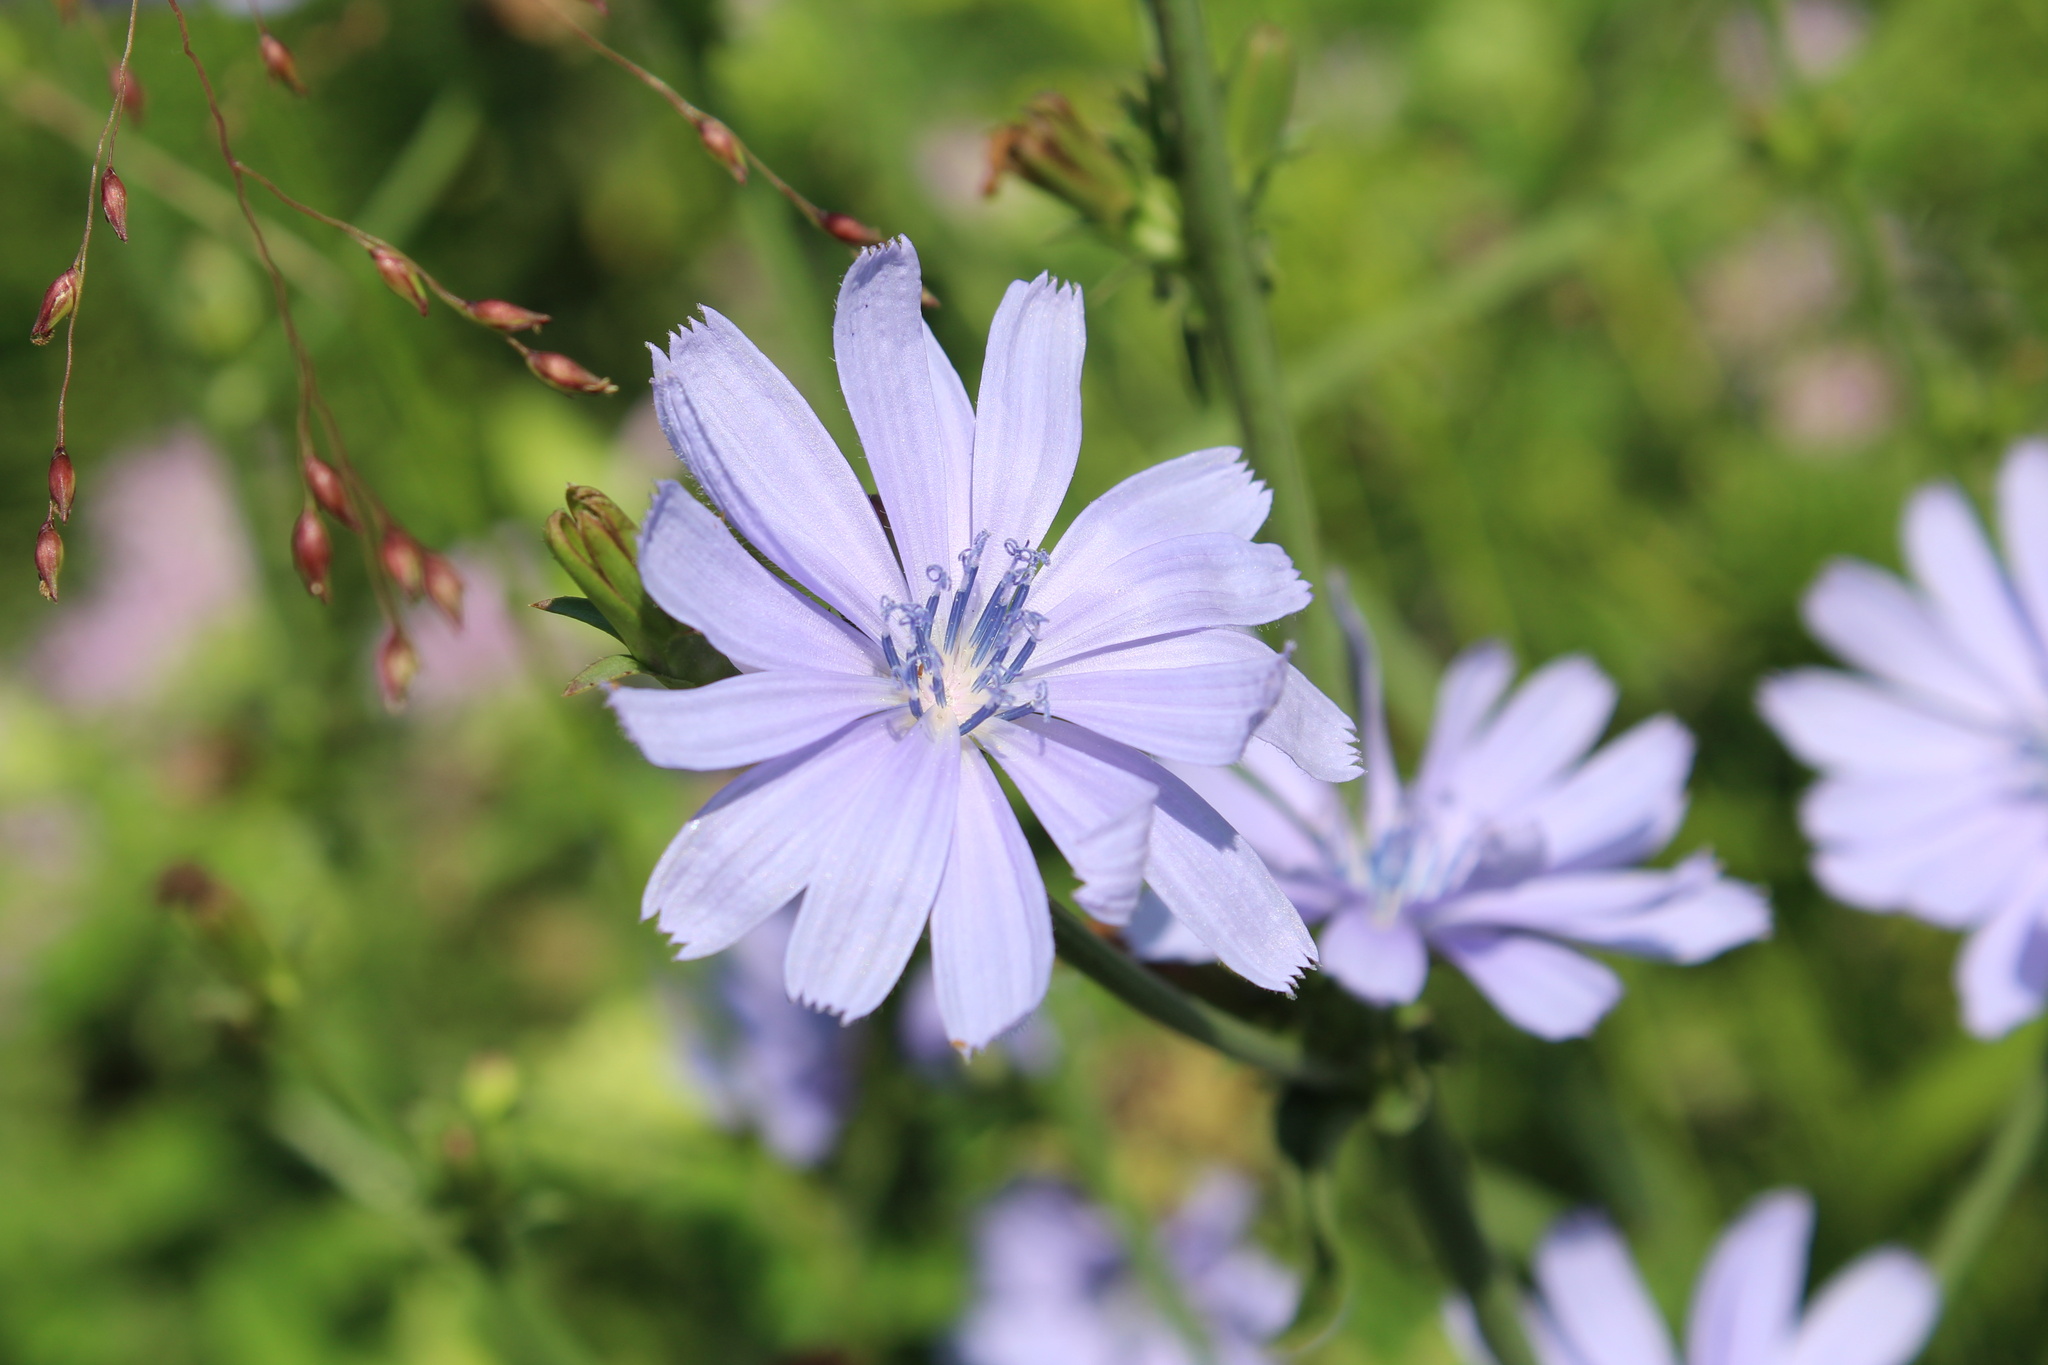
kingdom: Plantae
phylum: Tracheophyta
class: Magnoliopsida
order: Asterales
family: Asteraceae
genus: Cichorium
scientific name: Cichorium intybus
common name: Chicory
